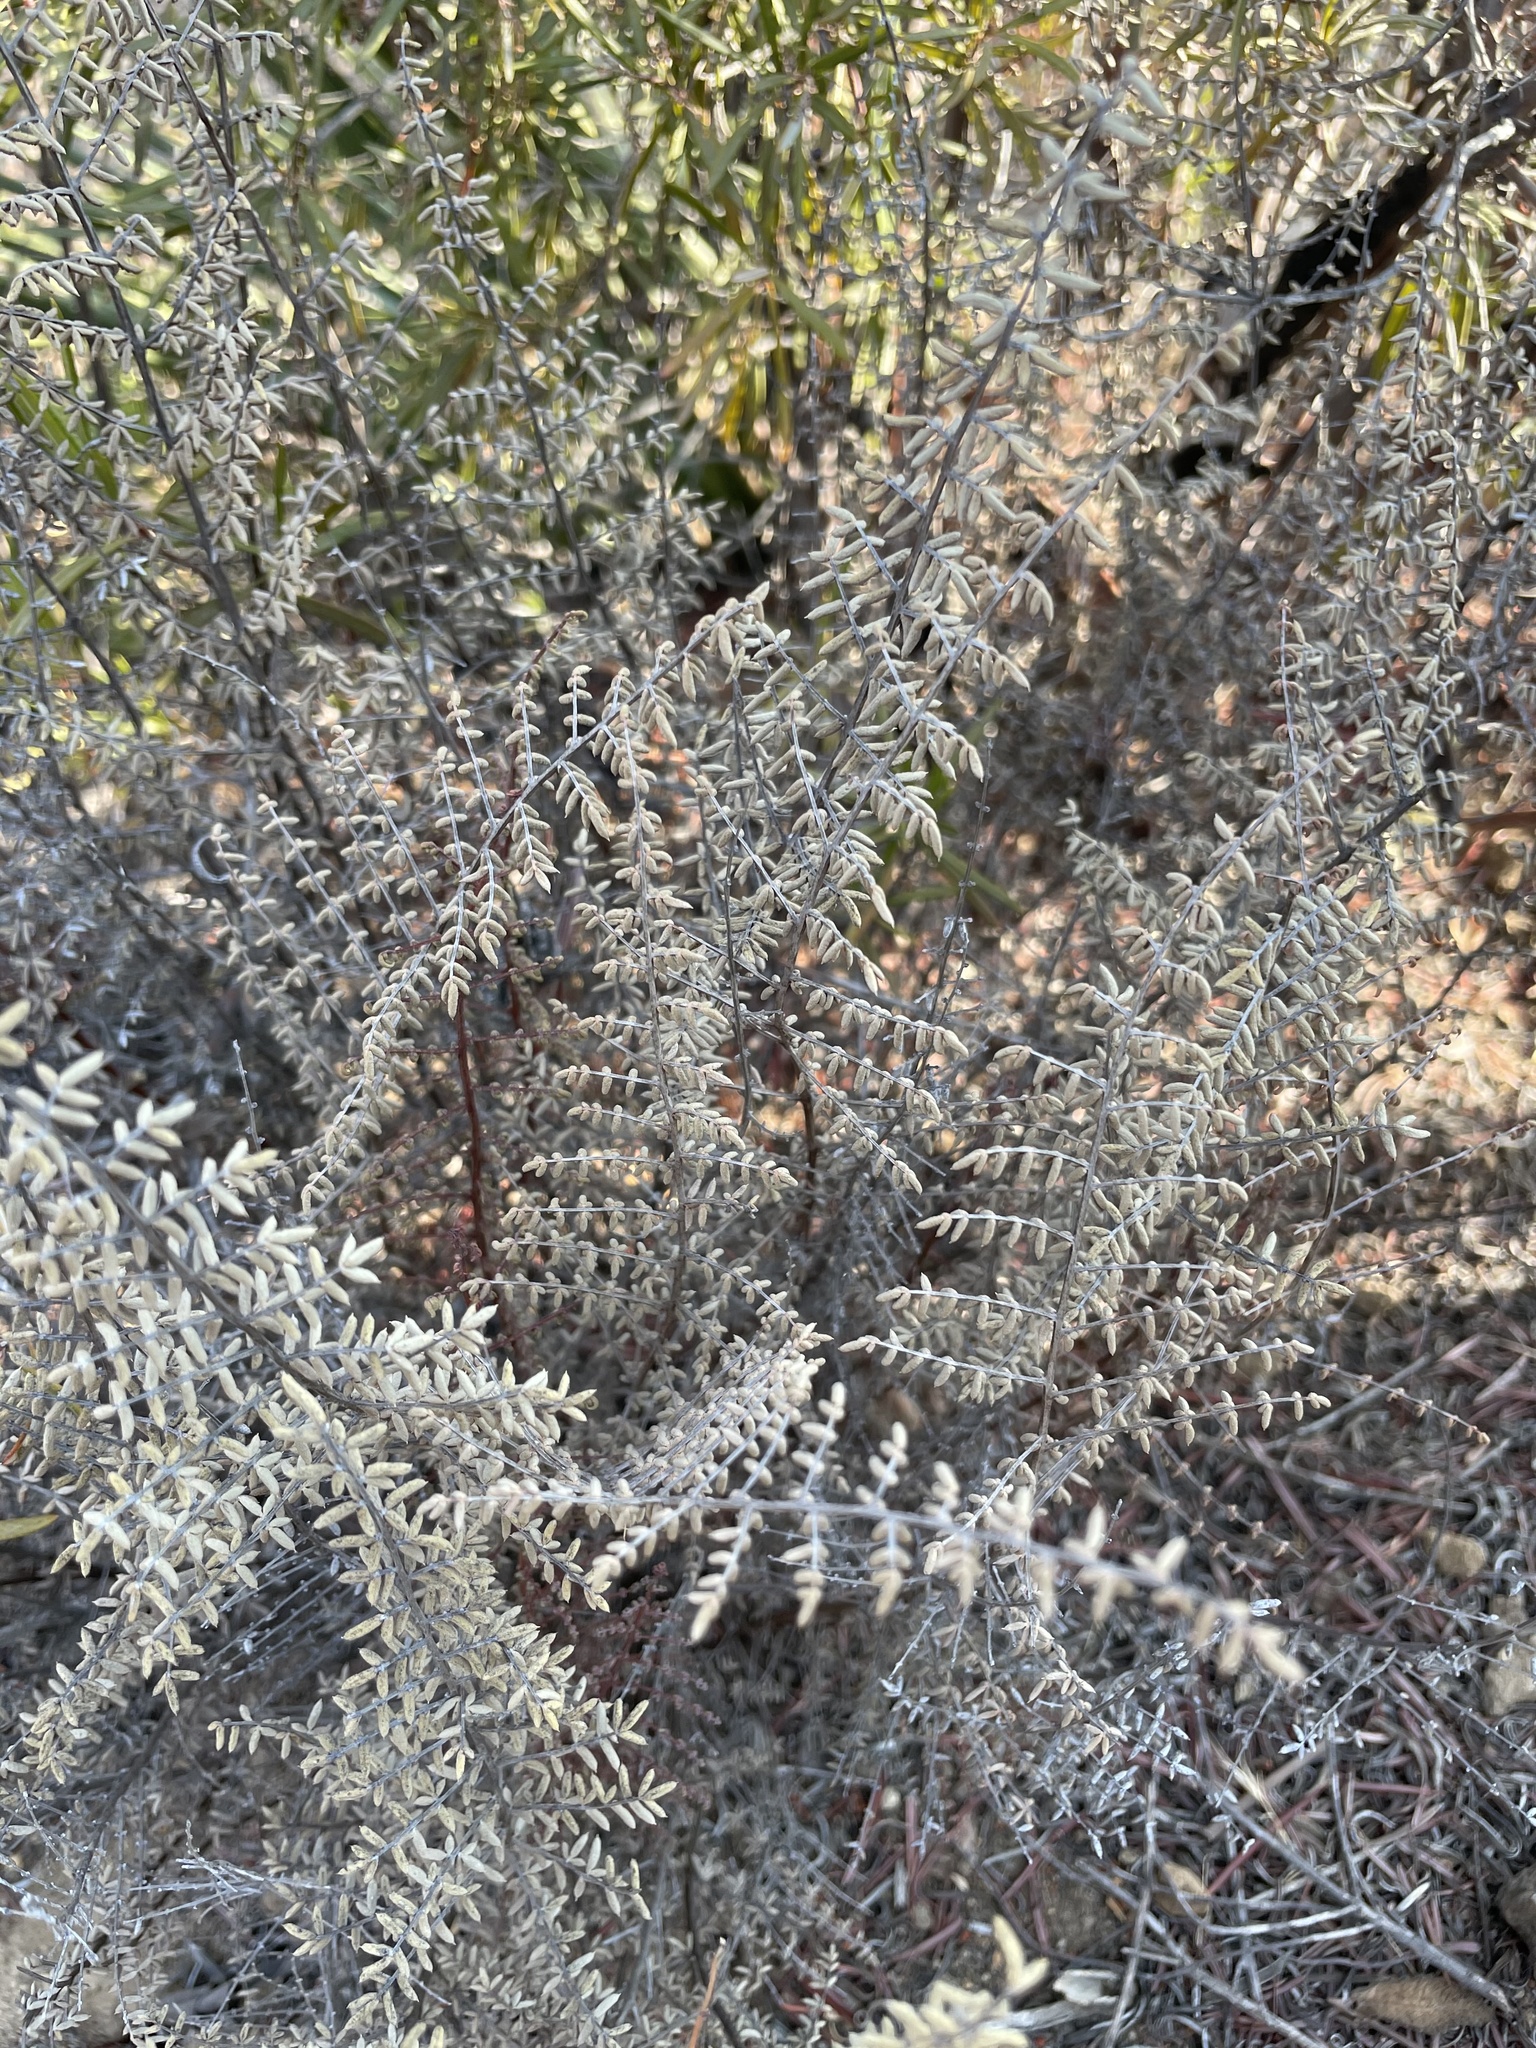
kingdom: Plantae
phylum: Tracheophyta
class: Polypodiopsida
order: Polypodiales
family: Pteridaceae
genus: Pellaea
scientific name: Pellaea mucronata
